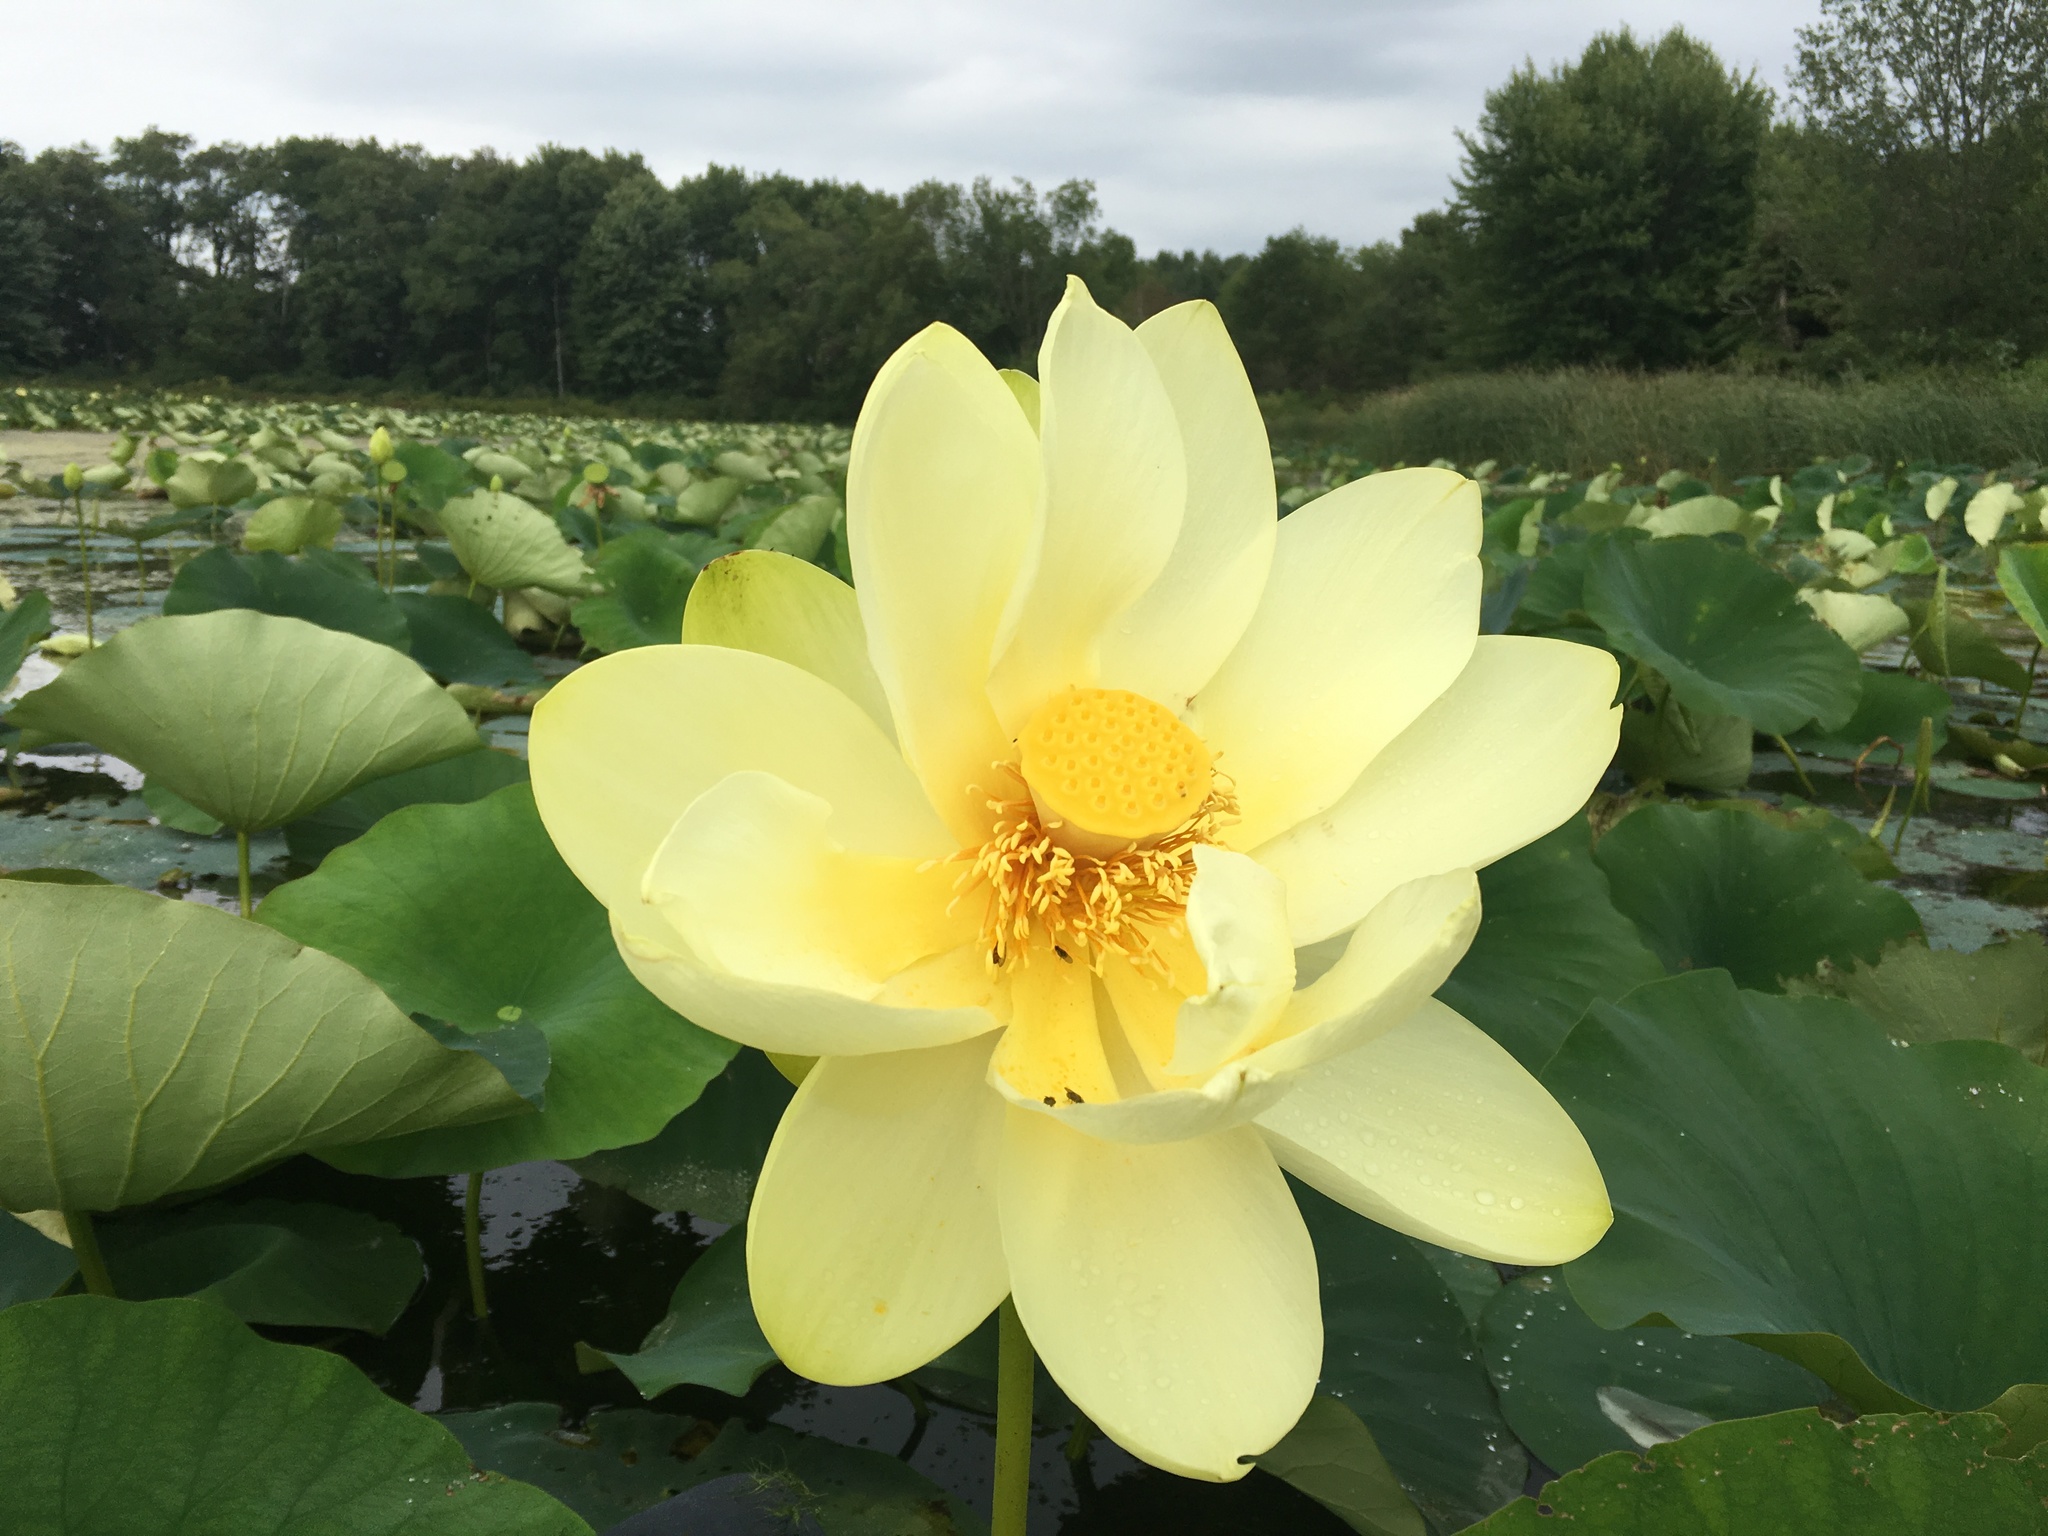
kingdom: Plantae
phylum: Tracheophyta
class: Magnoliopsida
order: Proteales
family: Nelumbonaceae
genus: Nelumbo
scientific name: Nelumbo lutea
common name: American lotus
